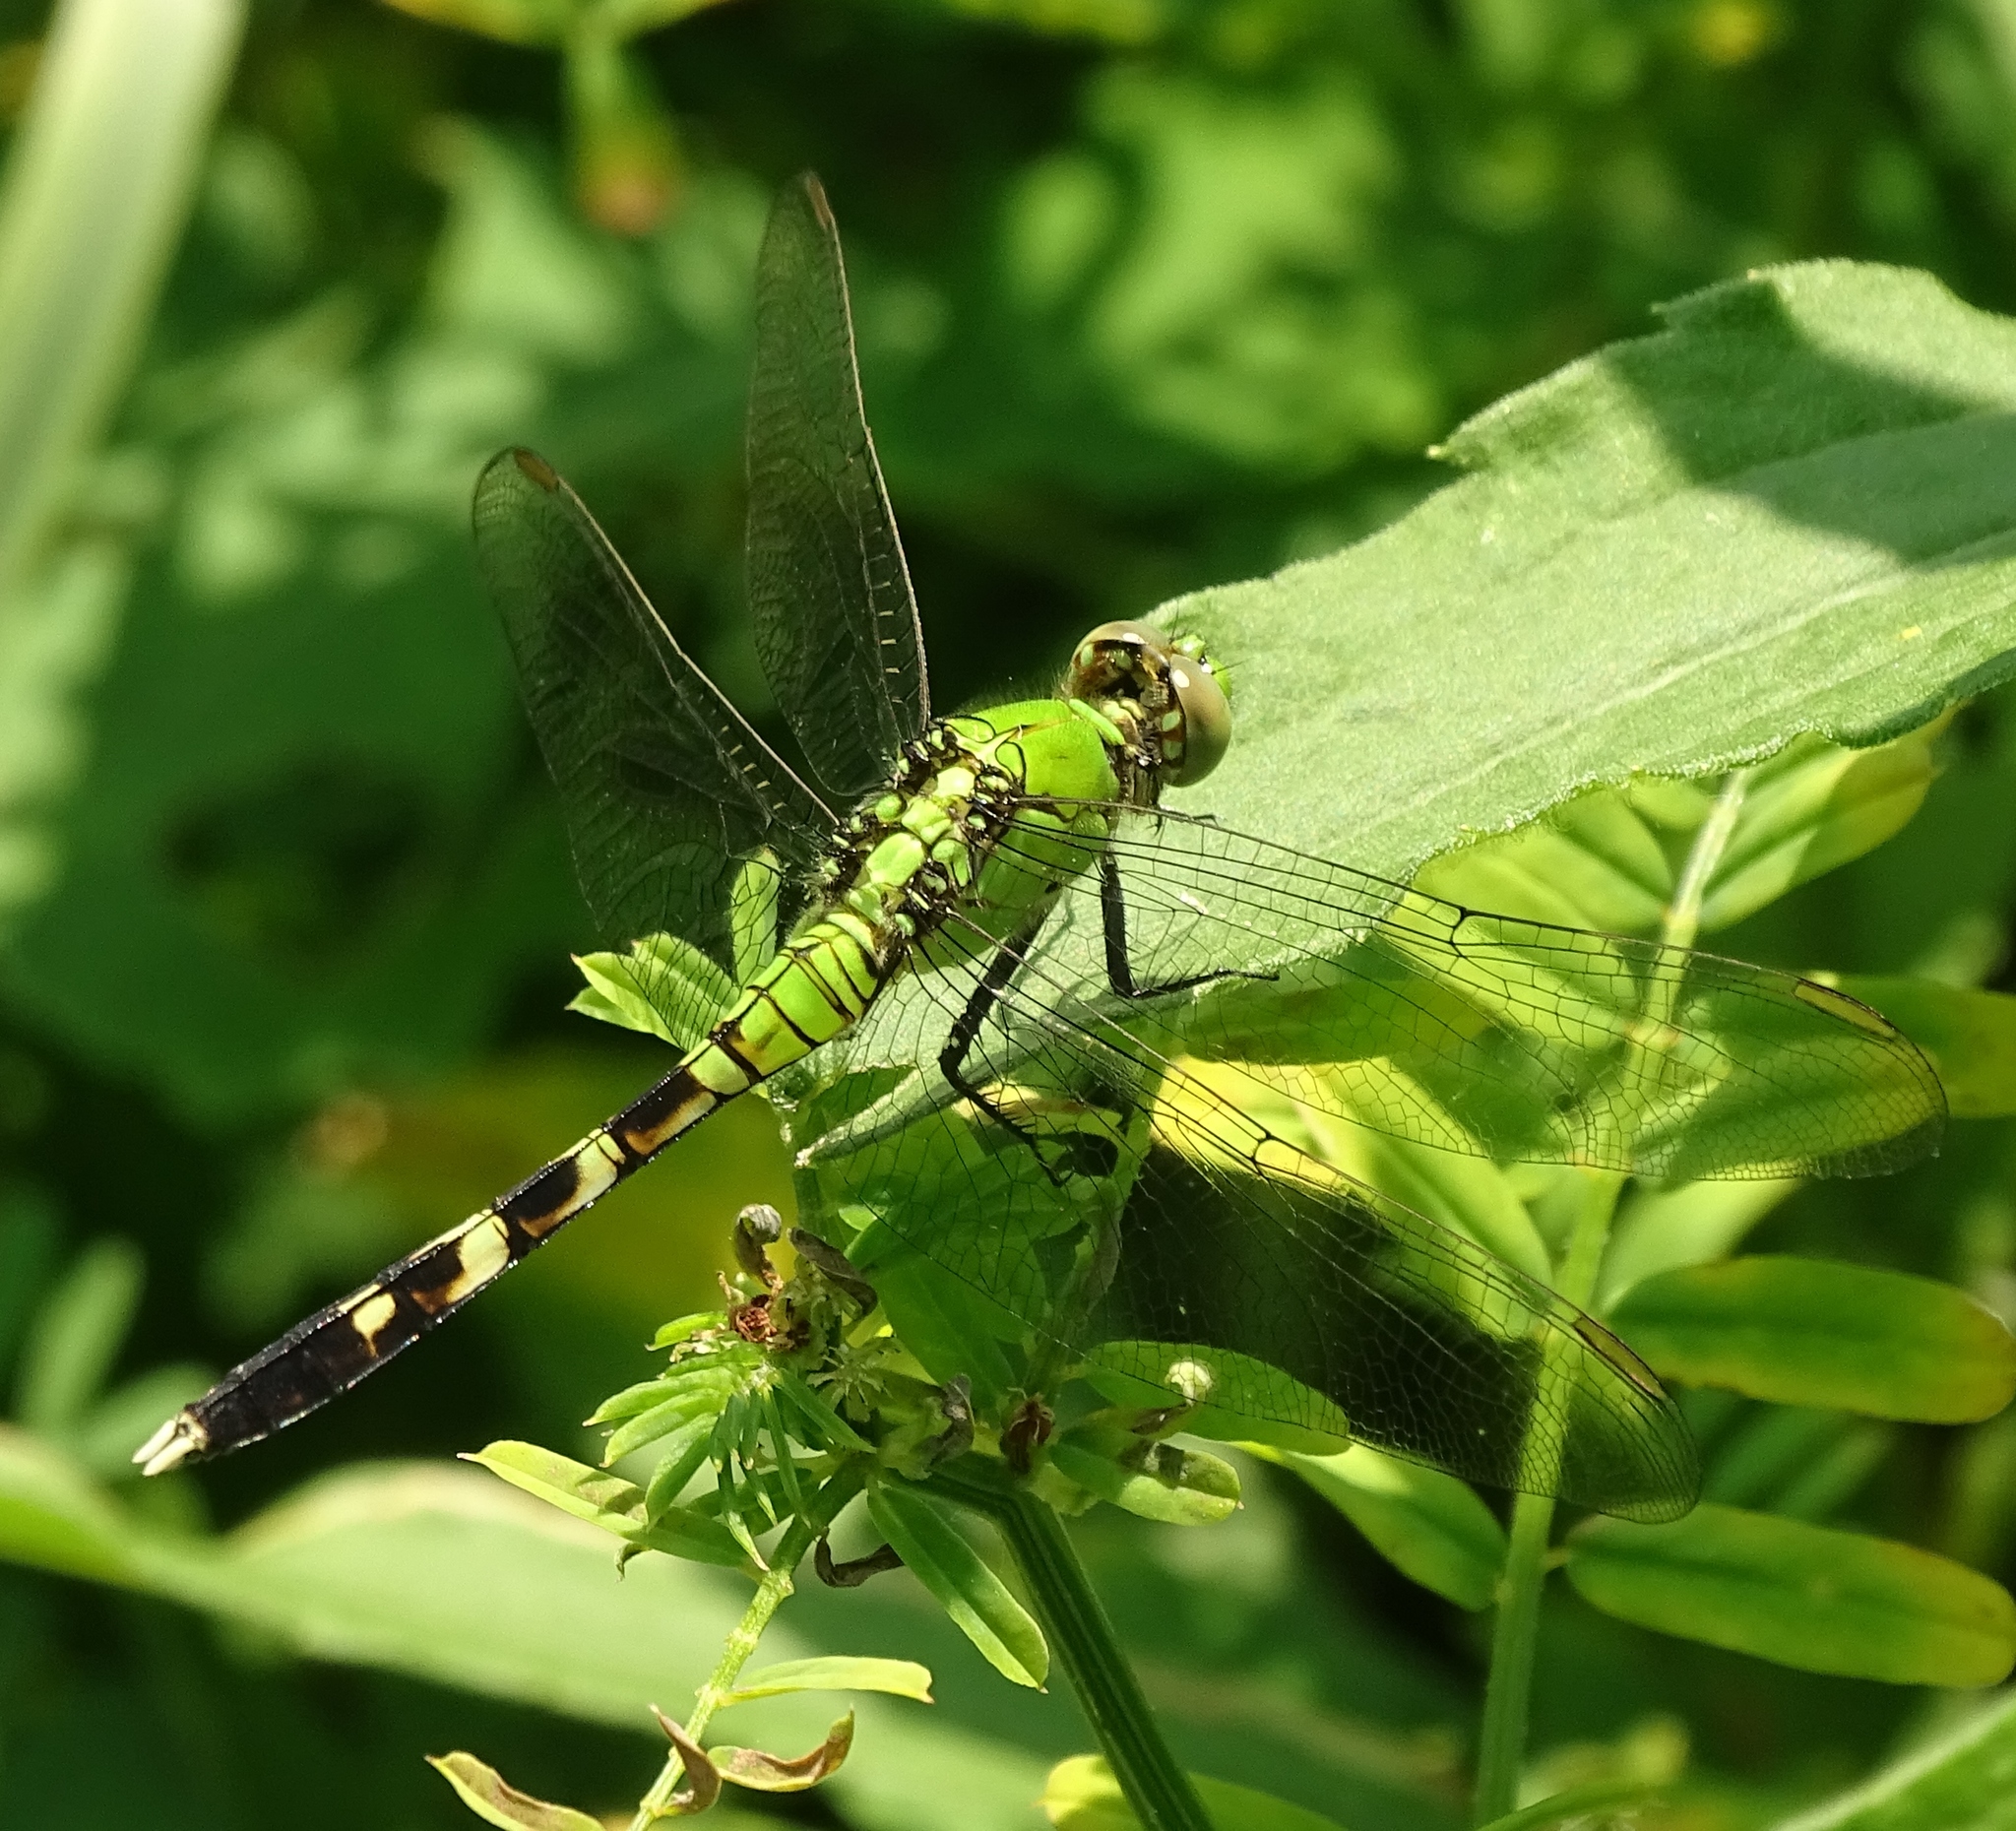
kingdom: Animalia
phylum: Arthropoda
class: Insecta
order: Odonata
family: Libellulidae
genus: Erythemis
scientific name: Erythemis simplicicollis
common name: Eastern pondhawk
